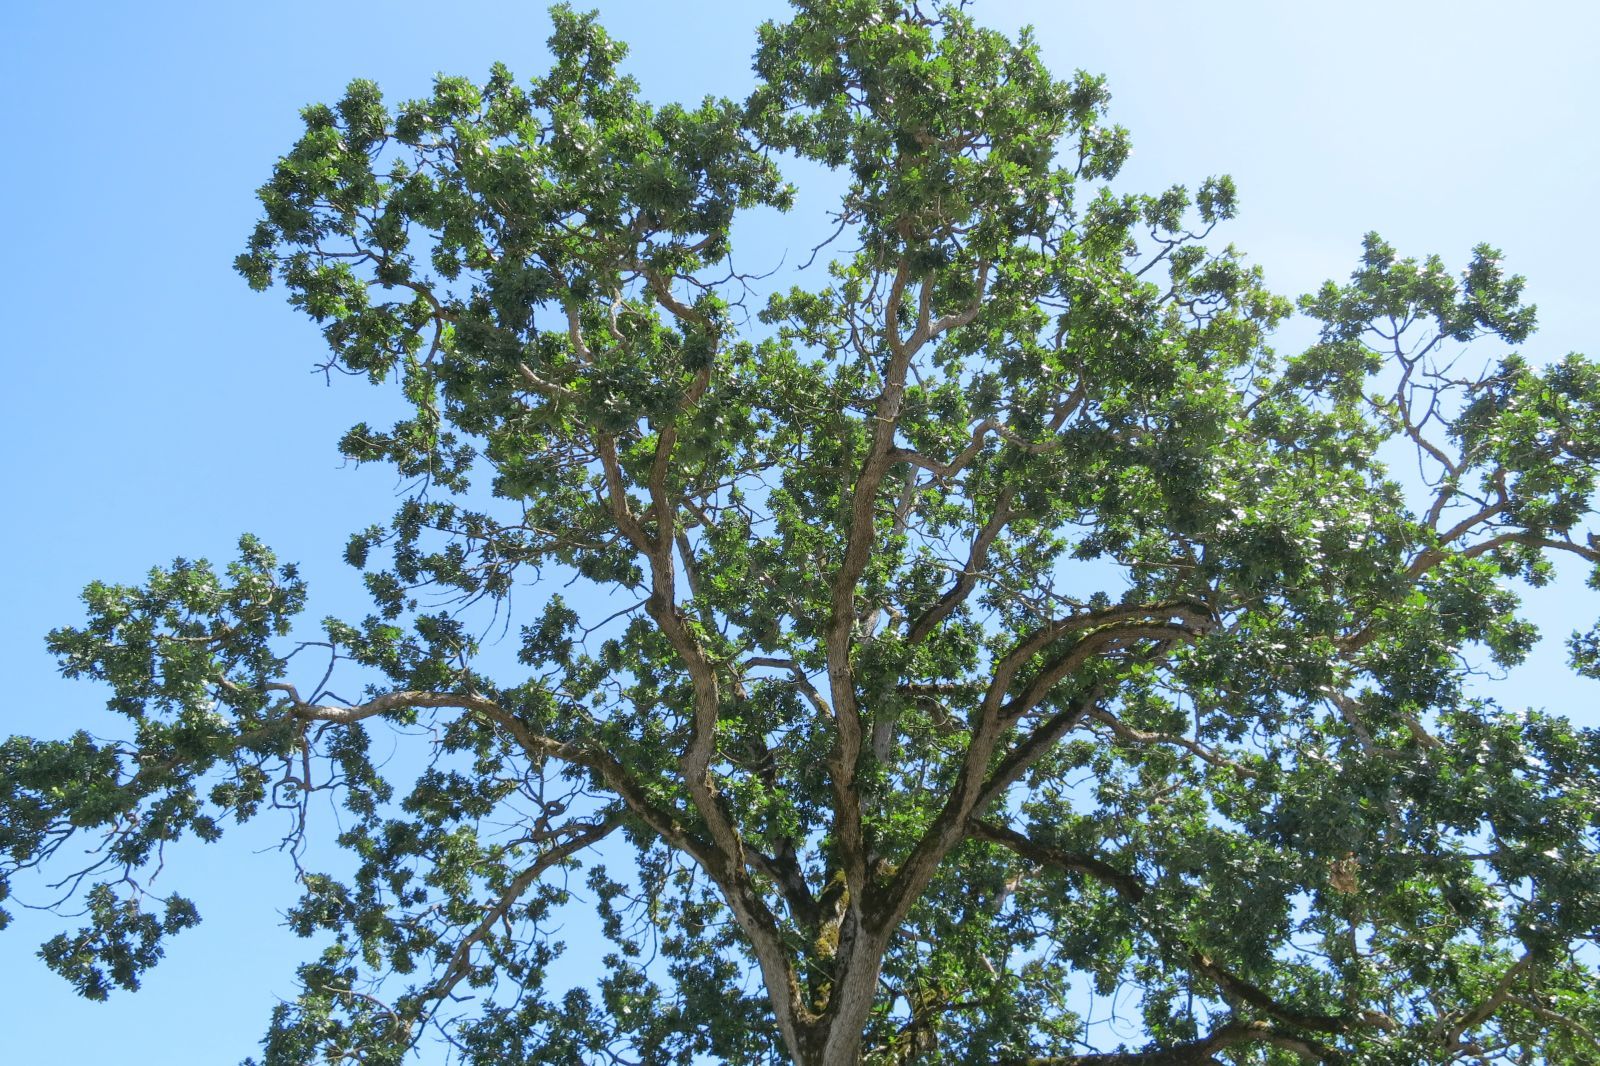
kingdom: Plantae
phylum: Tracheophyta
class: Magnoliopsida
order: Fagales
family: Fagaceae
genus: Quercus
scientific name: Quercus garryana
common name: Garry oak
